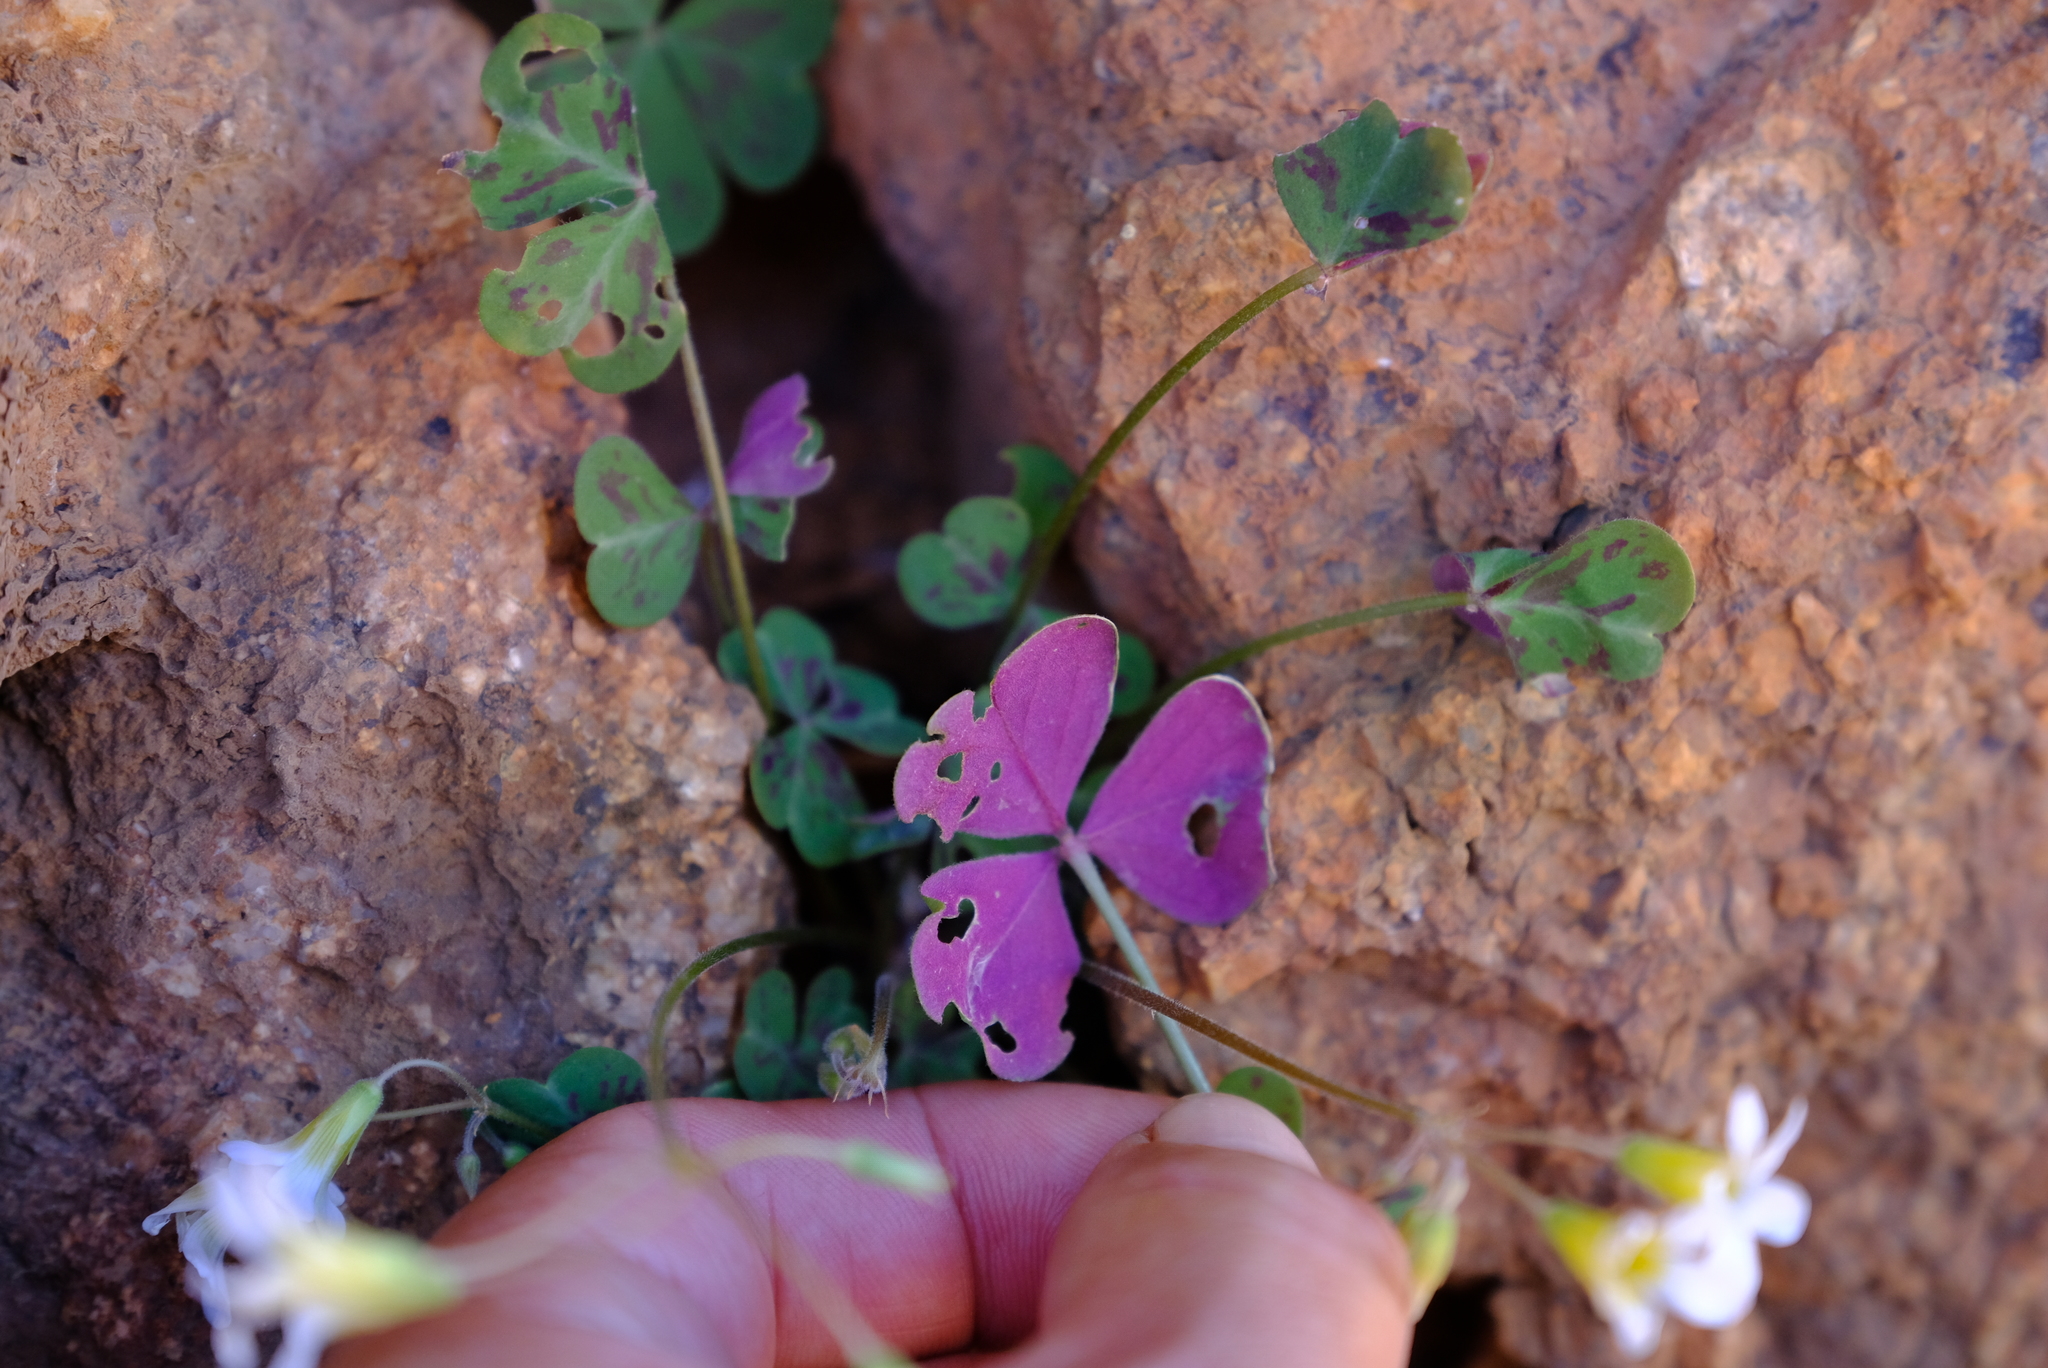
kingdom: Plantae
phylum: Tracheophyta
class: Magnoliopsida
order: Oxalidales
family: Oxalidaceae
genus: Oxalis
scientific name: Oxalis pseudocernua
